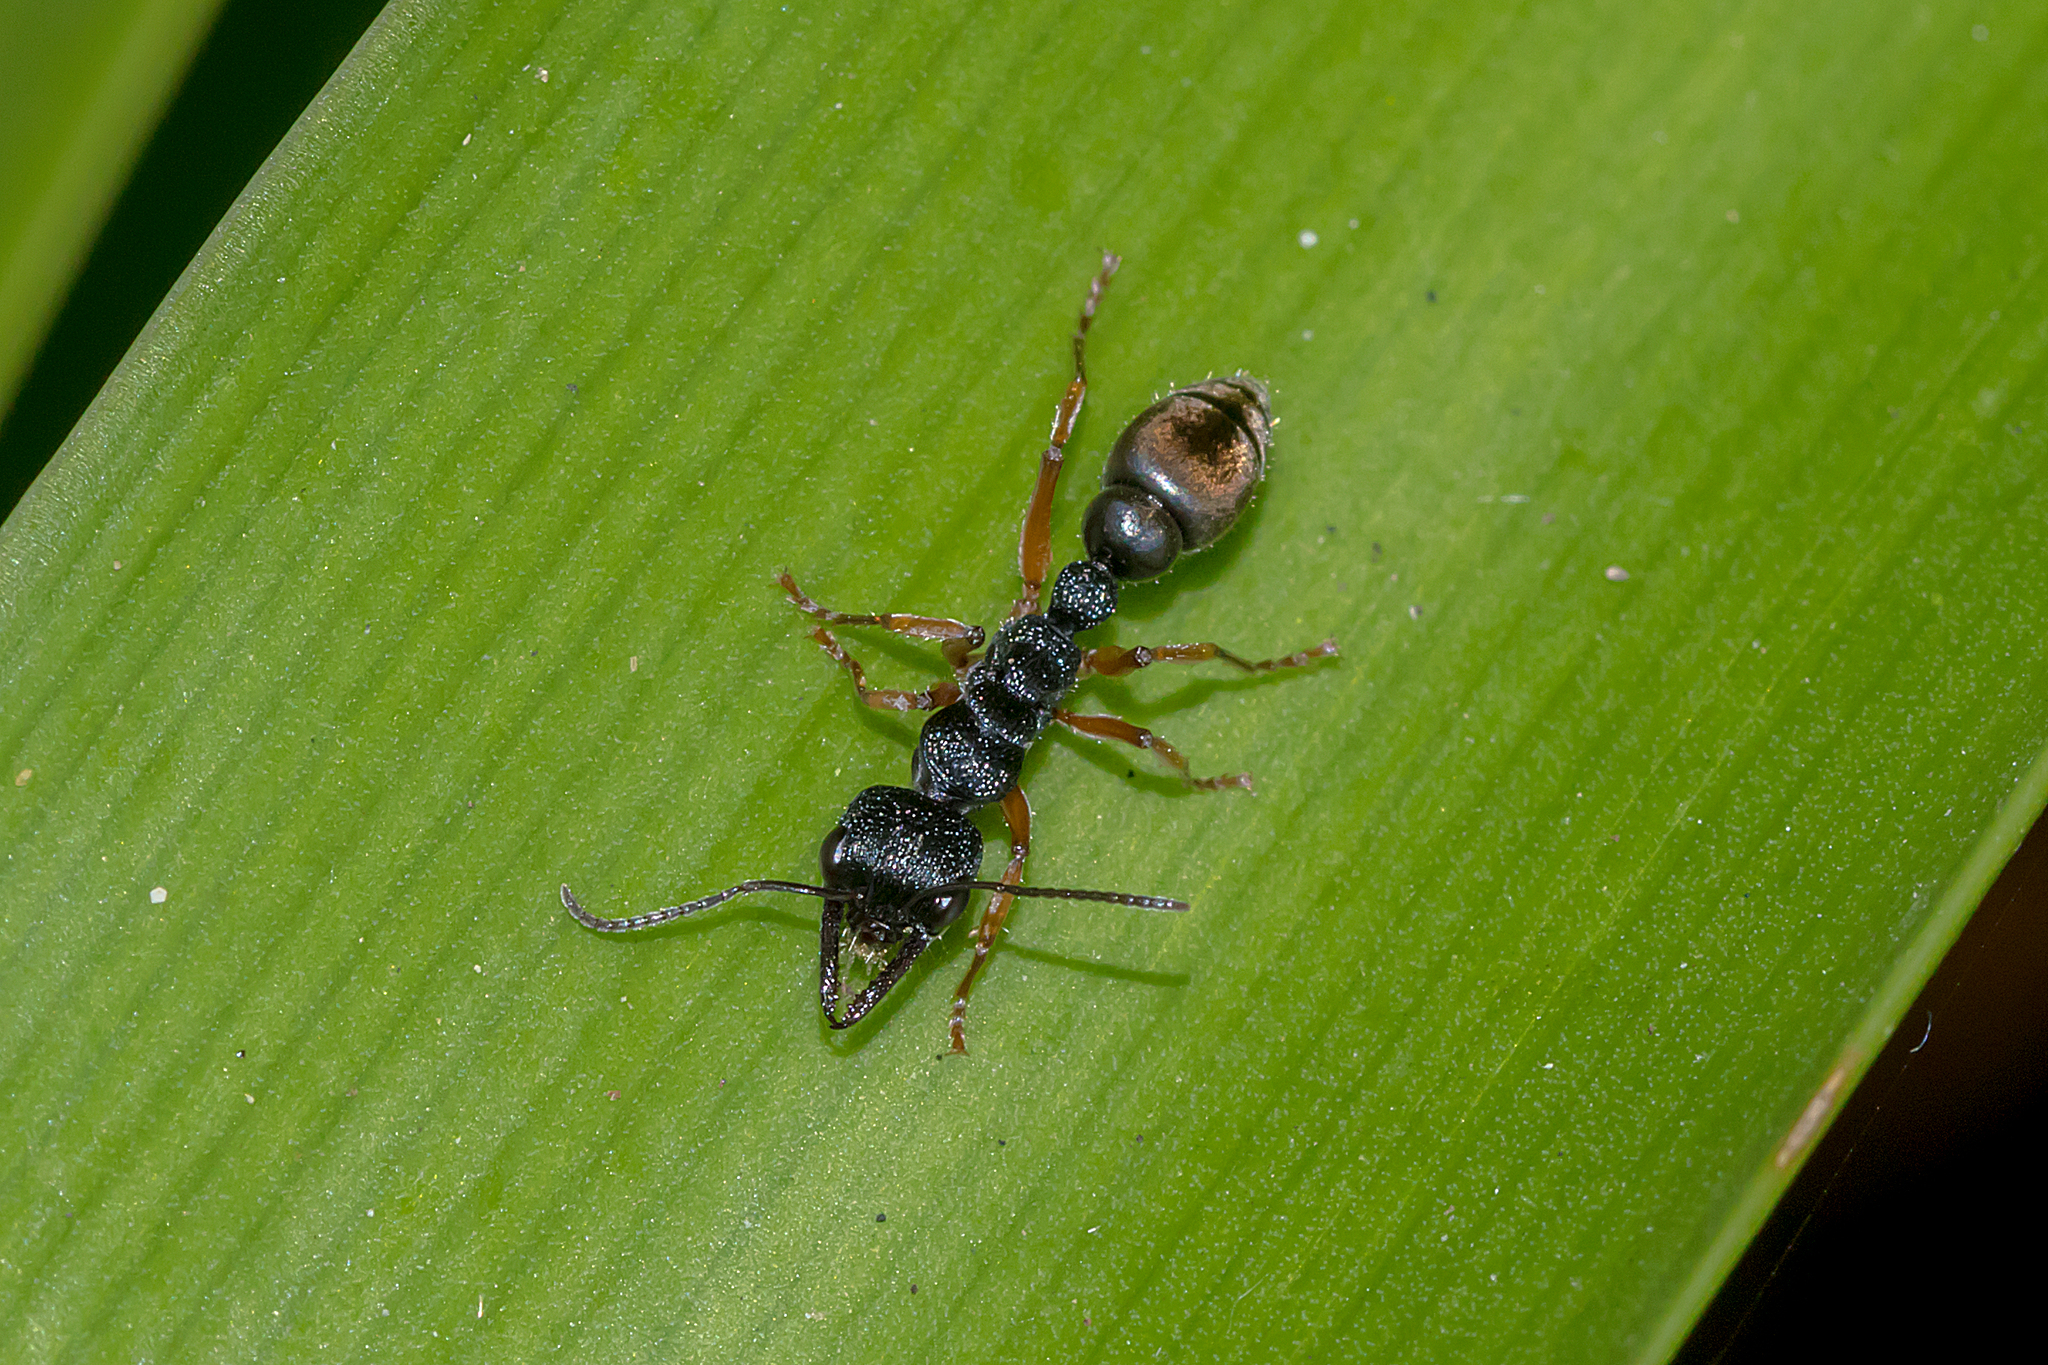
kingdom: Animalia
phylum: Arthropoda
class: Insecta
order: Hymenoptera
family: Formicidae
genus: Myrmecia
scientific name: Myrmecia fulvipes
